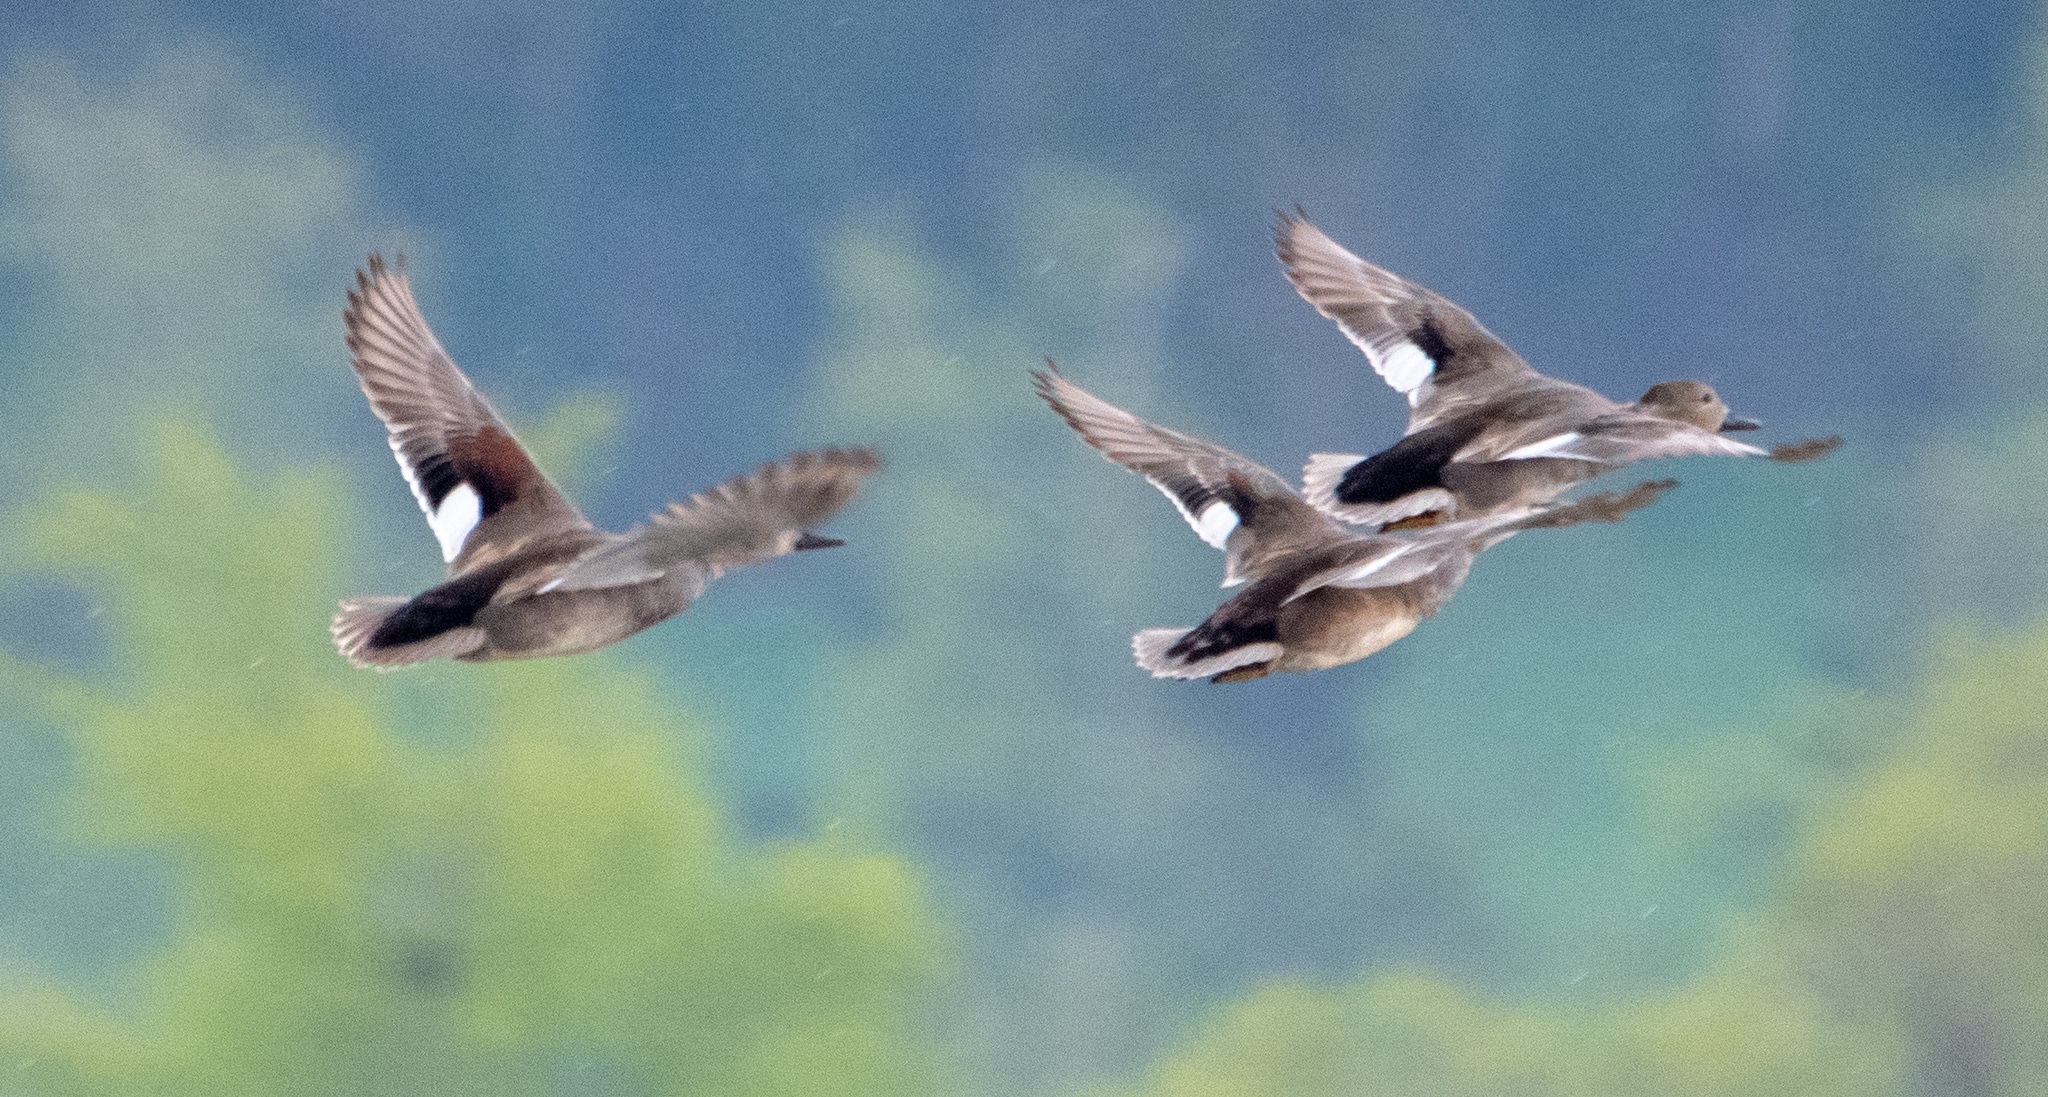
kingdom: Animalia
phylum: Chordata
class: Aves
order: Anseriformes
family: Anatidae
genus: Mareca
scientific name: Mareca strepera
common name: Gadwall
